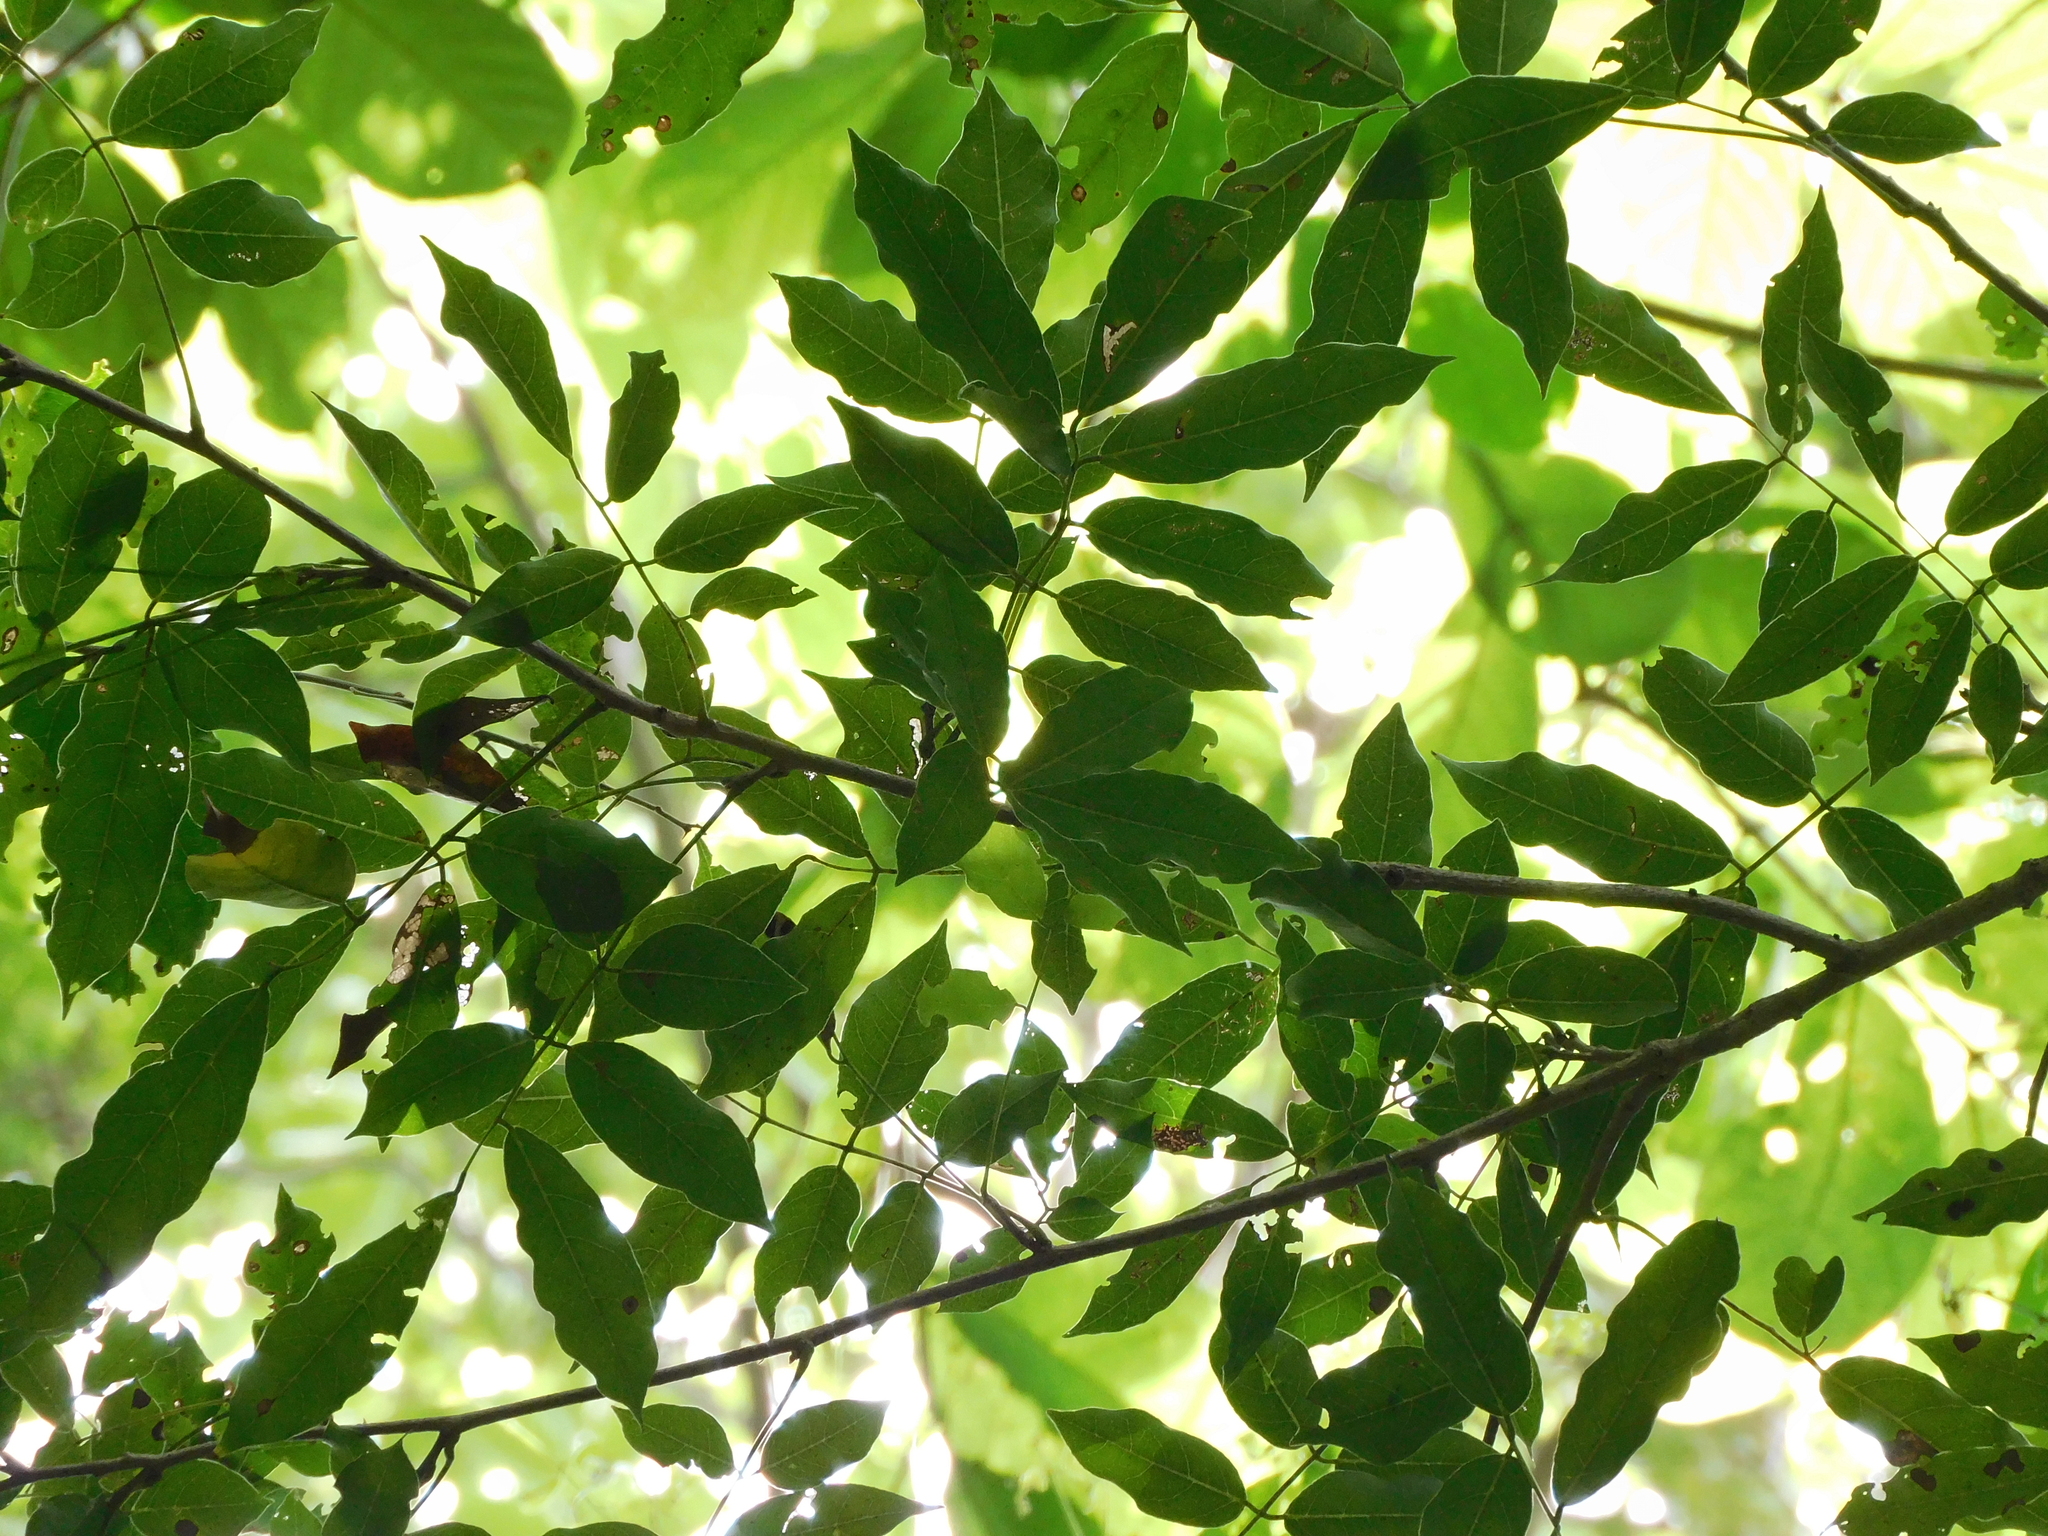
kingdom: Plantae
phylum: Tracheophyta
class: Magnoliopsida
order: Fabales
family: Fabaceae
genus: Andira
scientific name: Andira inermis
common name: Angelin
